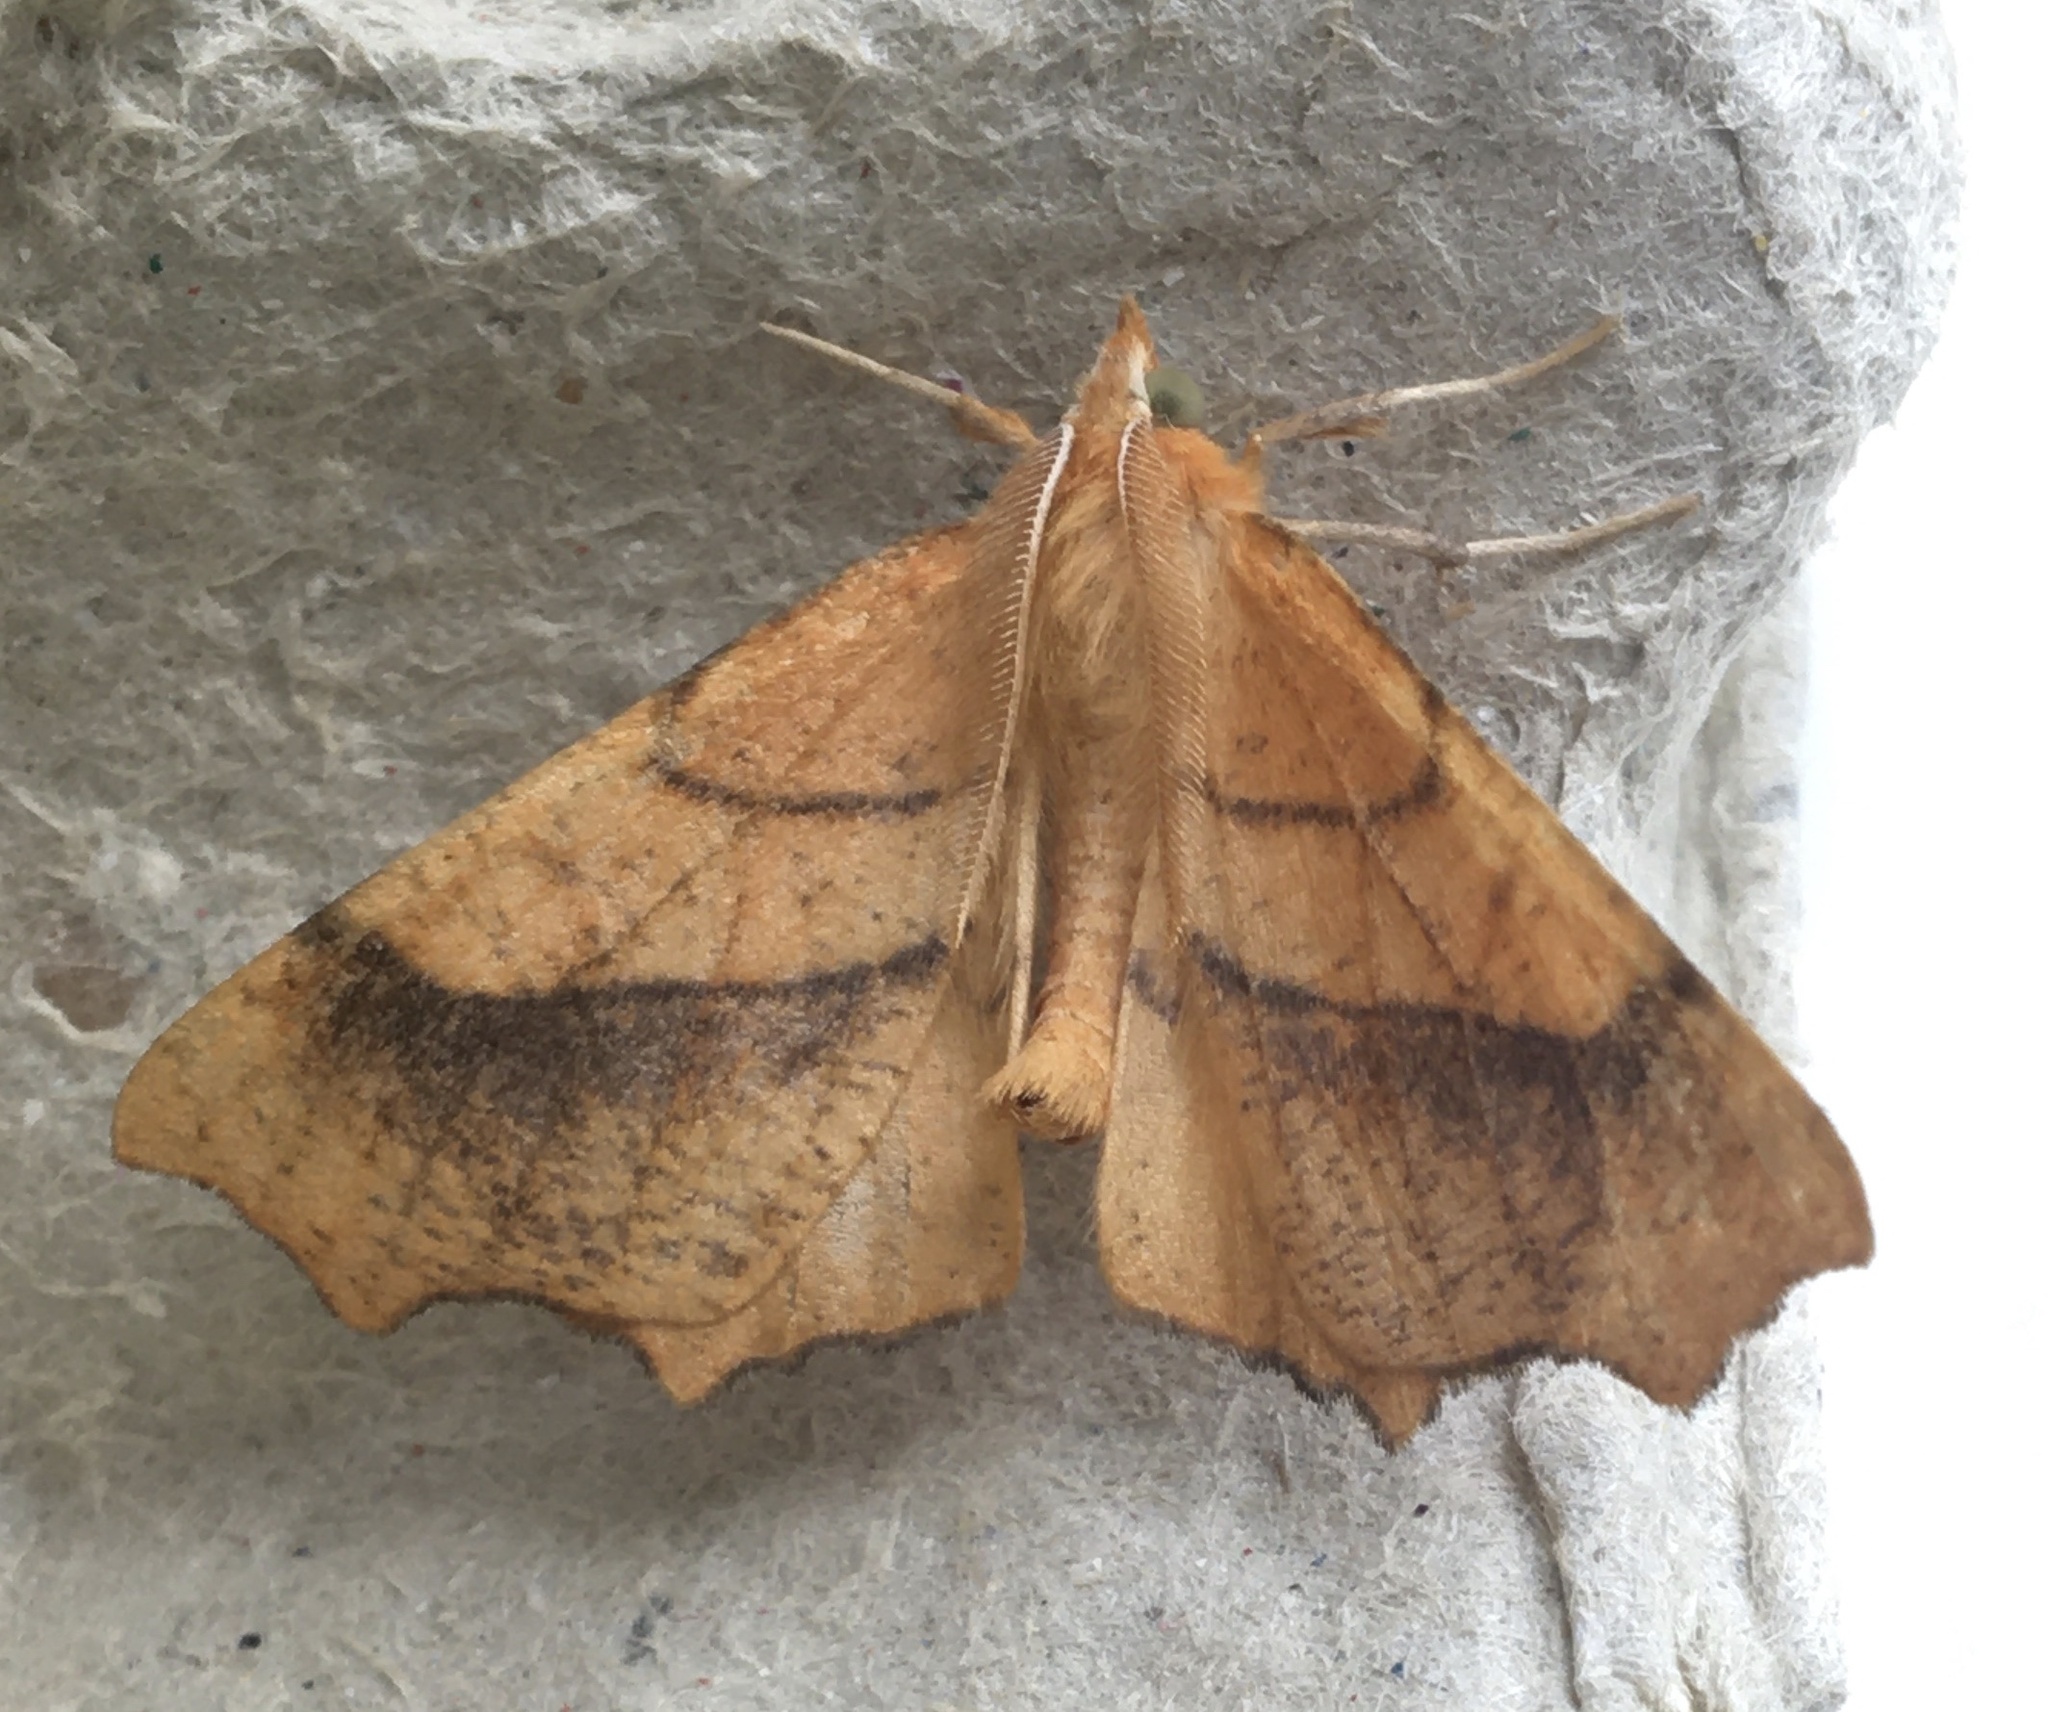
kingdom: Animalia
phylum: Arthropoda
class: Insecta
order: Lepidoptera
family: Geometridae
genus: Ennomos
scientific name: Ennomos quercinaria
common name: August thorn
